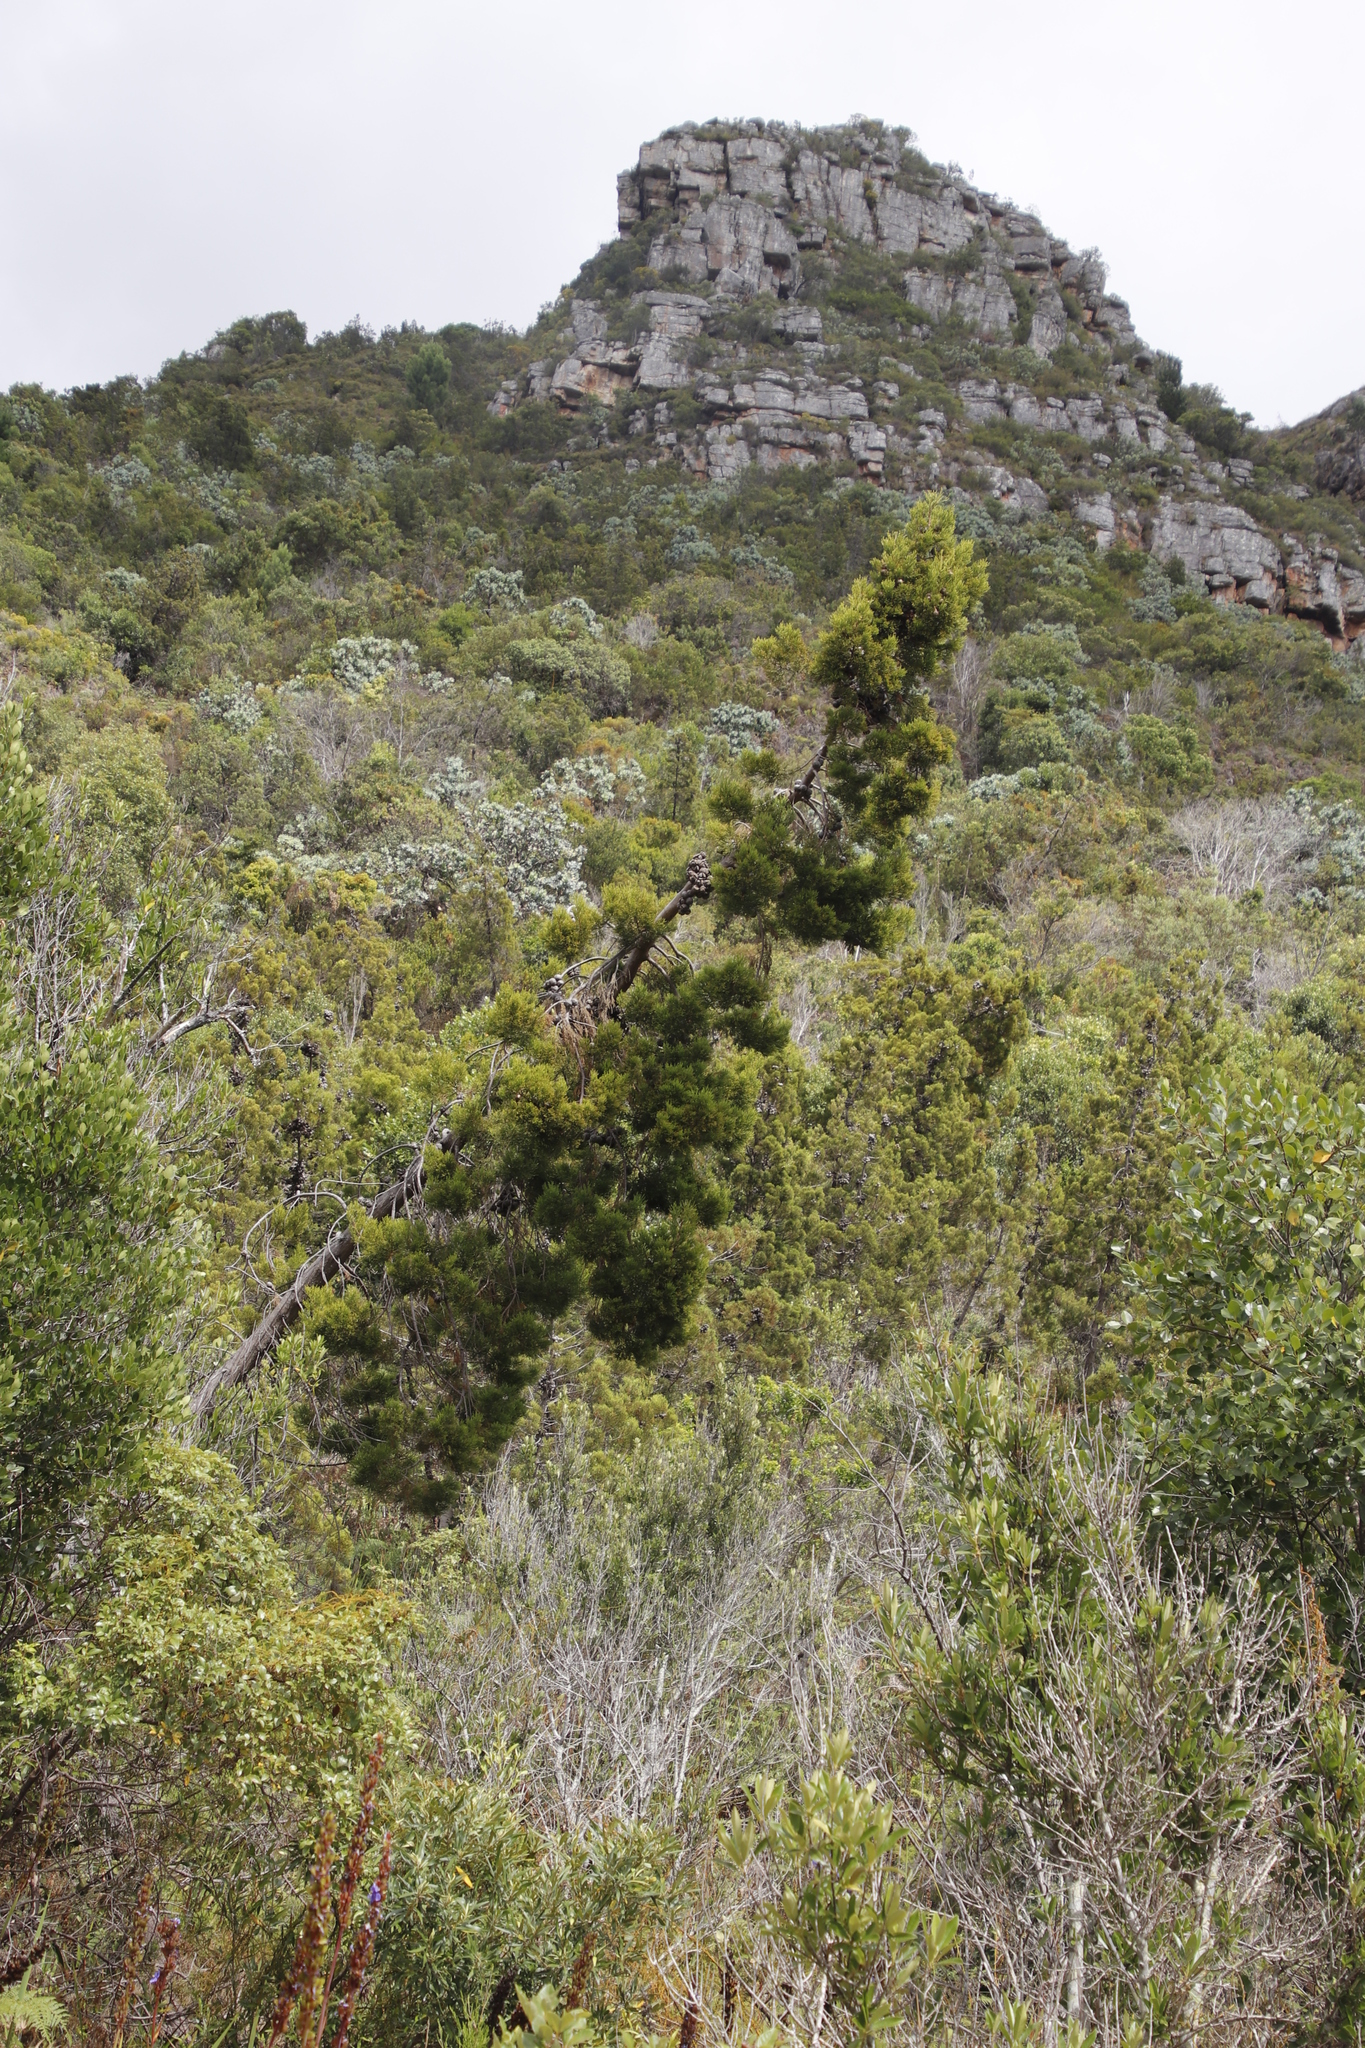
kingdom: Plantae
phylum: Tracheophyta
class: Pinopsida
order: Pinales
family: Cupressaceae
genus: Widdringtonia
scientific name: Widdringtonia nodiflora
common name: Cape cypress
